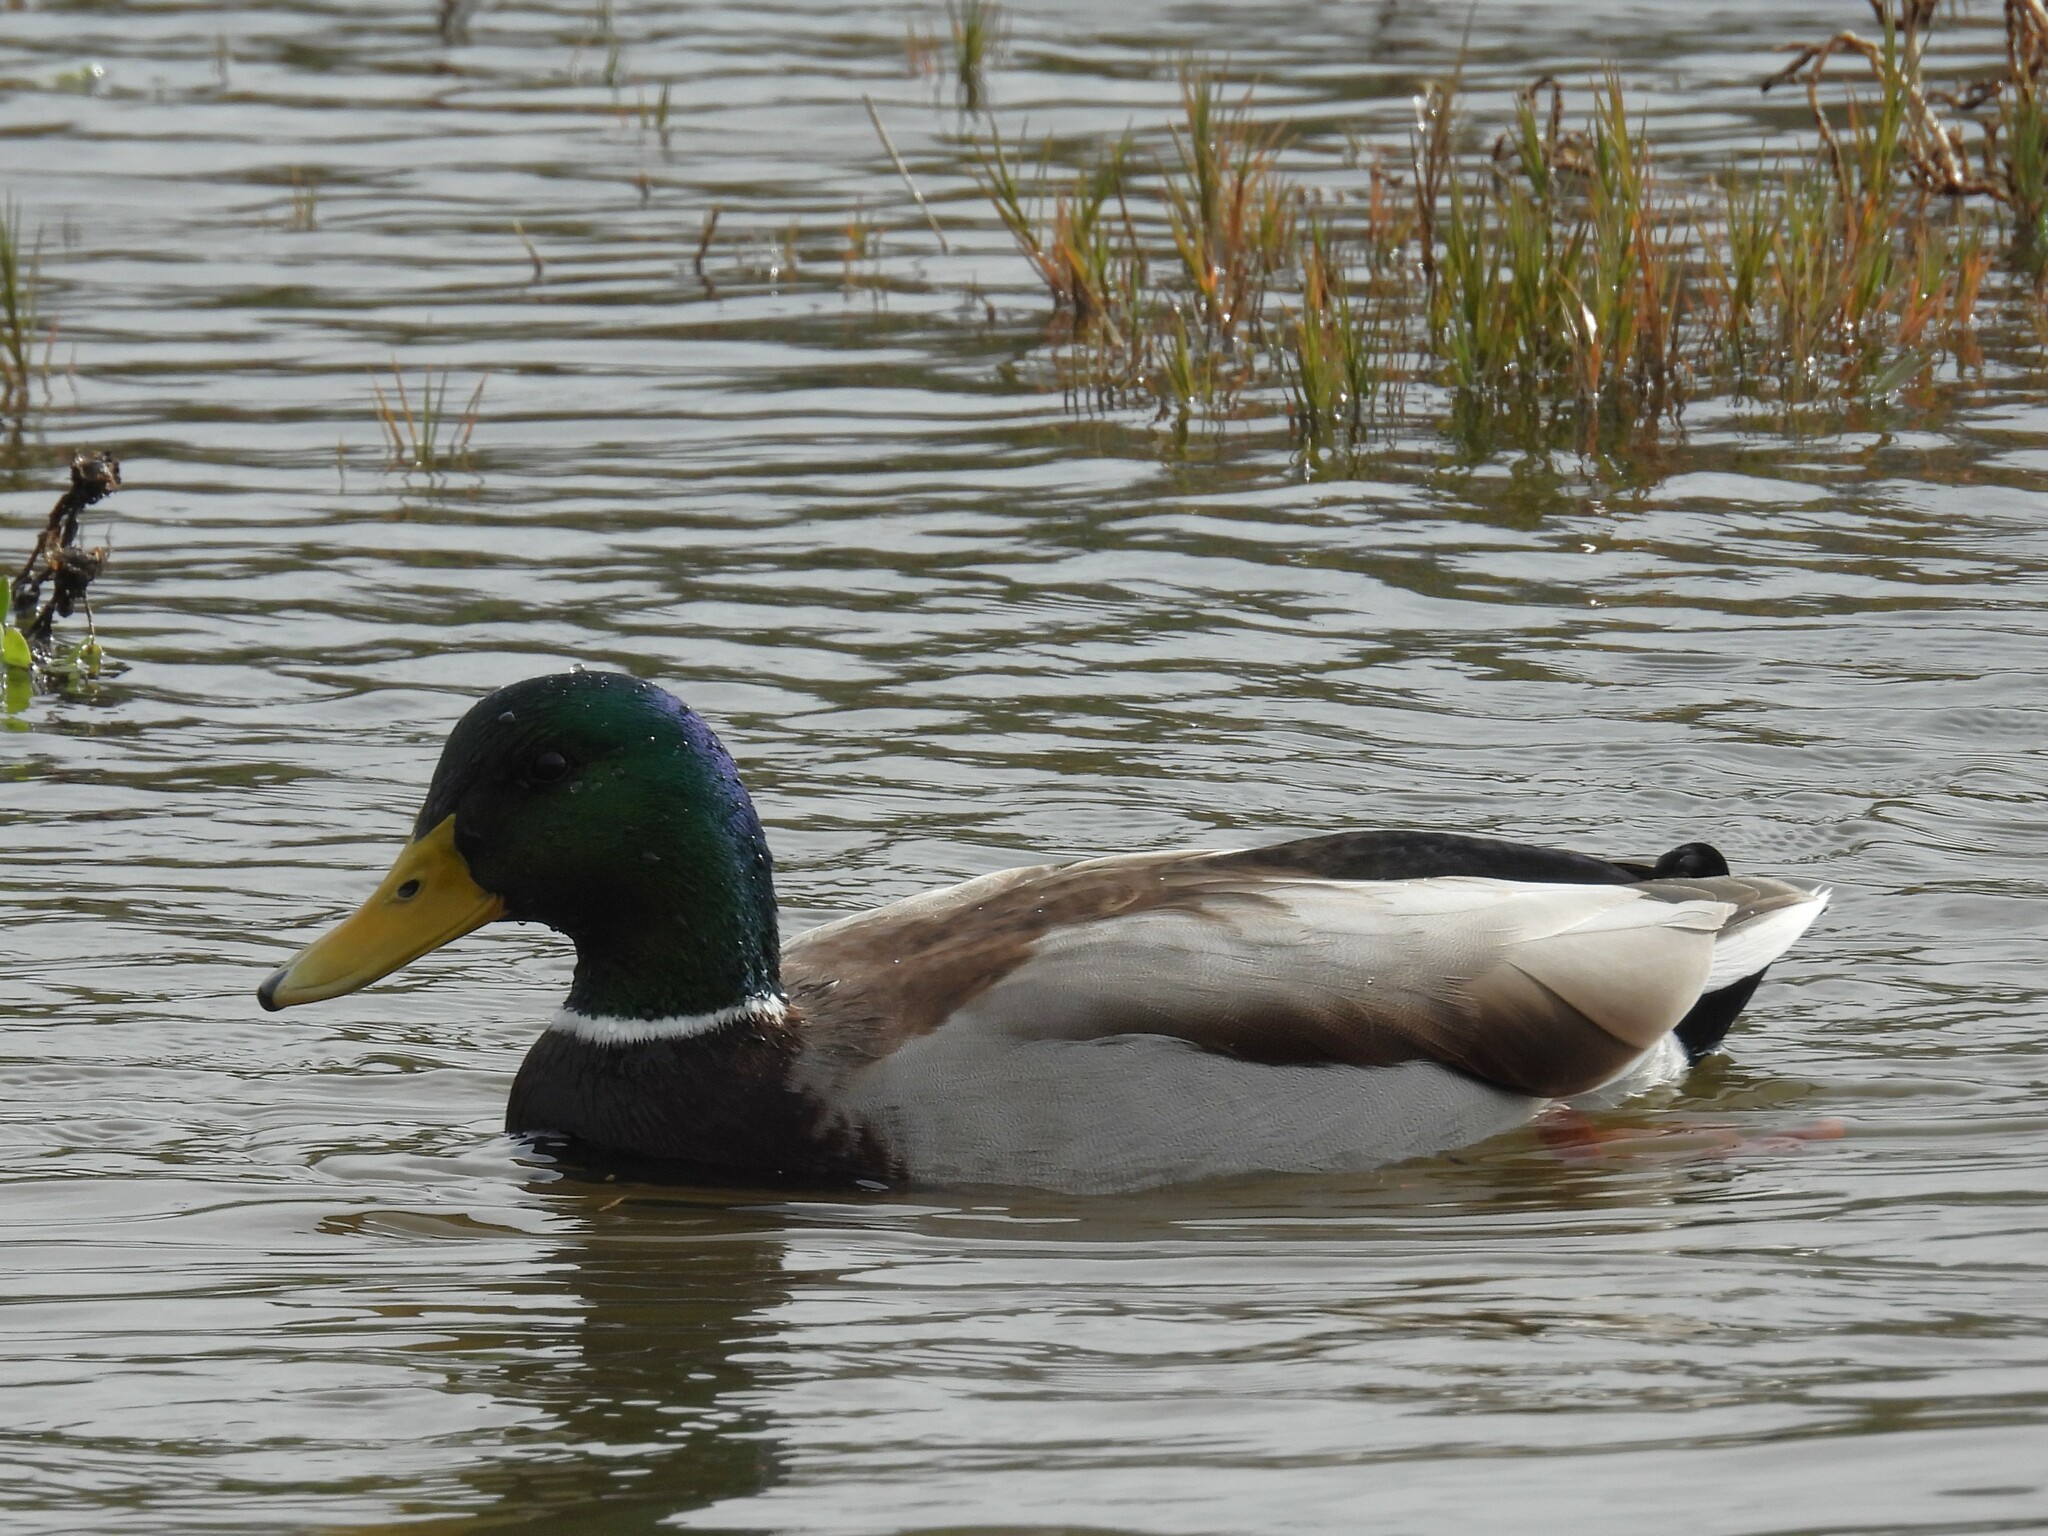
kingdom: Animalia
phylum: Chordata
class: Aves
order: Anseriformes
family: Anatidae
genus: Anas
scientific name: Anas platyrhynchos
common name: Mallard
